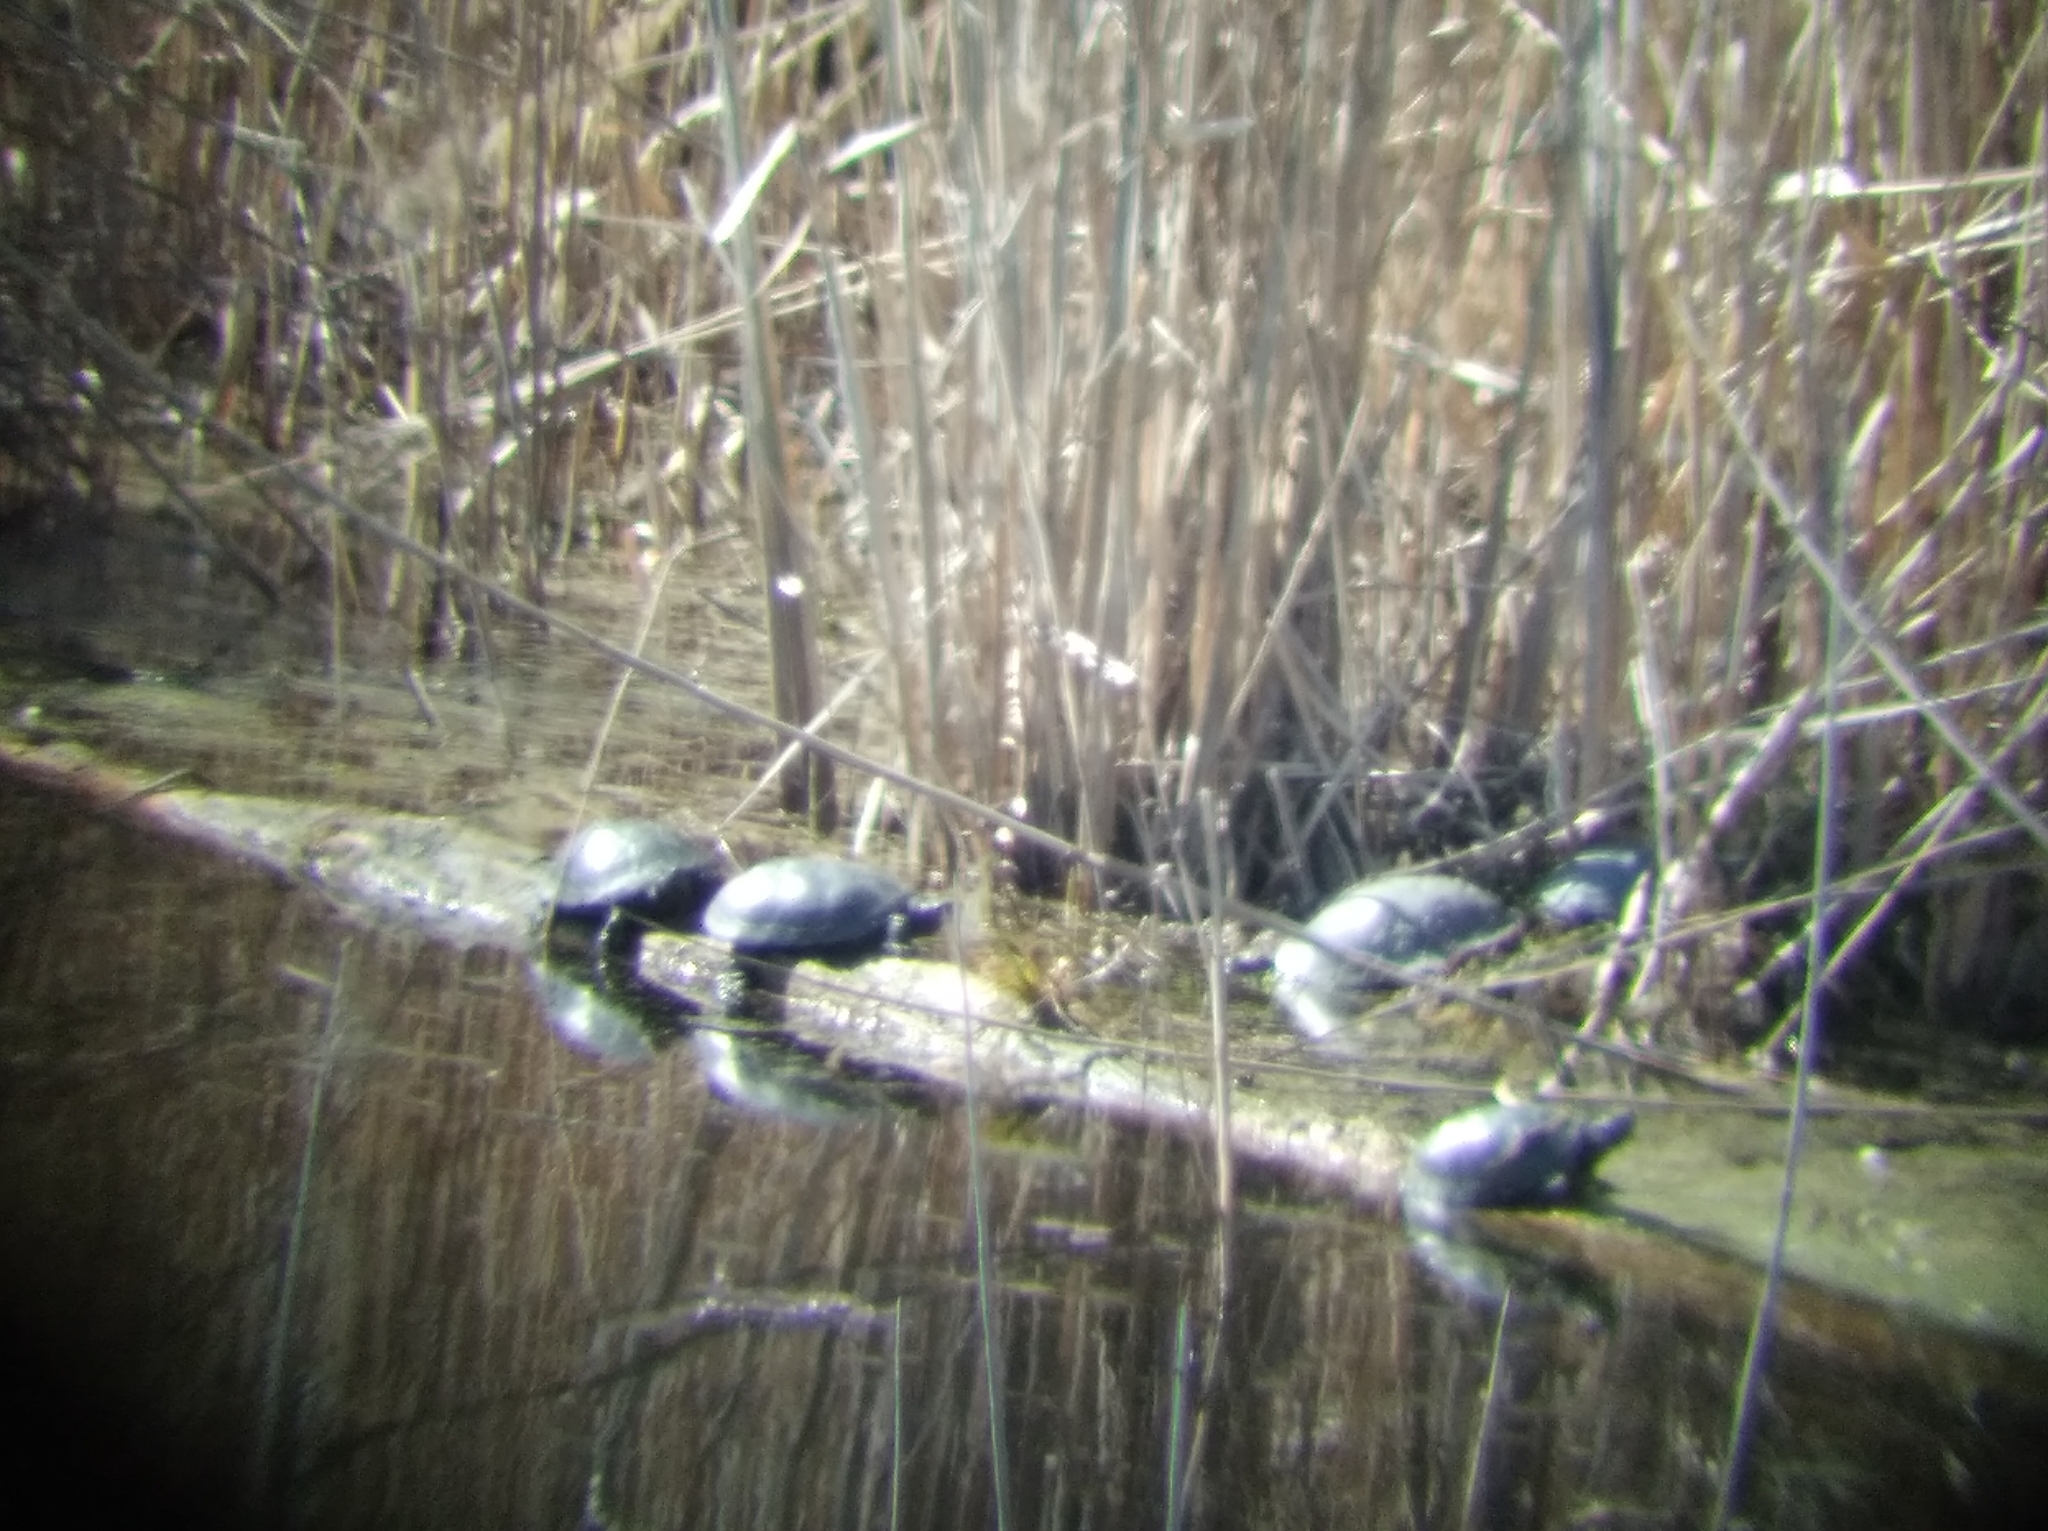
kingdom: Animalia
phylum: Chordata
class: Testudines
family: Emydidae
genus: Emys
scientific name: Emys orbicularis
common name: European pond turtle
